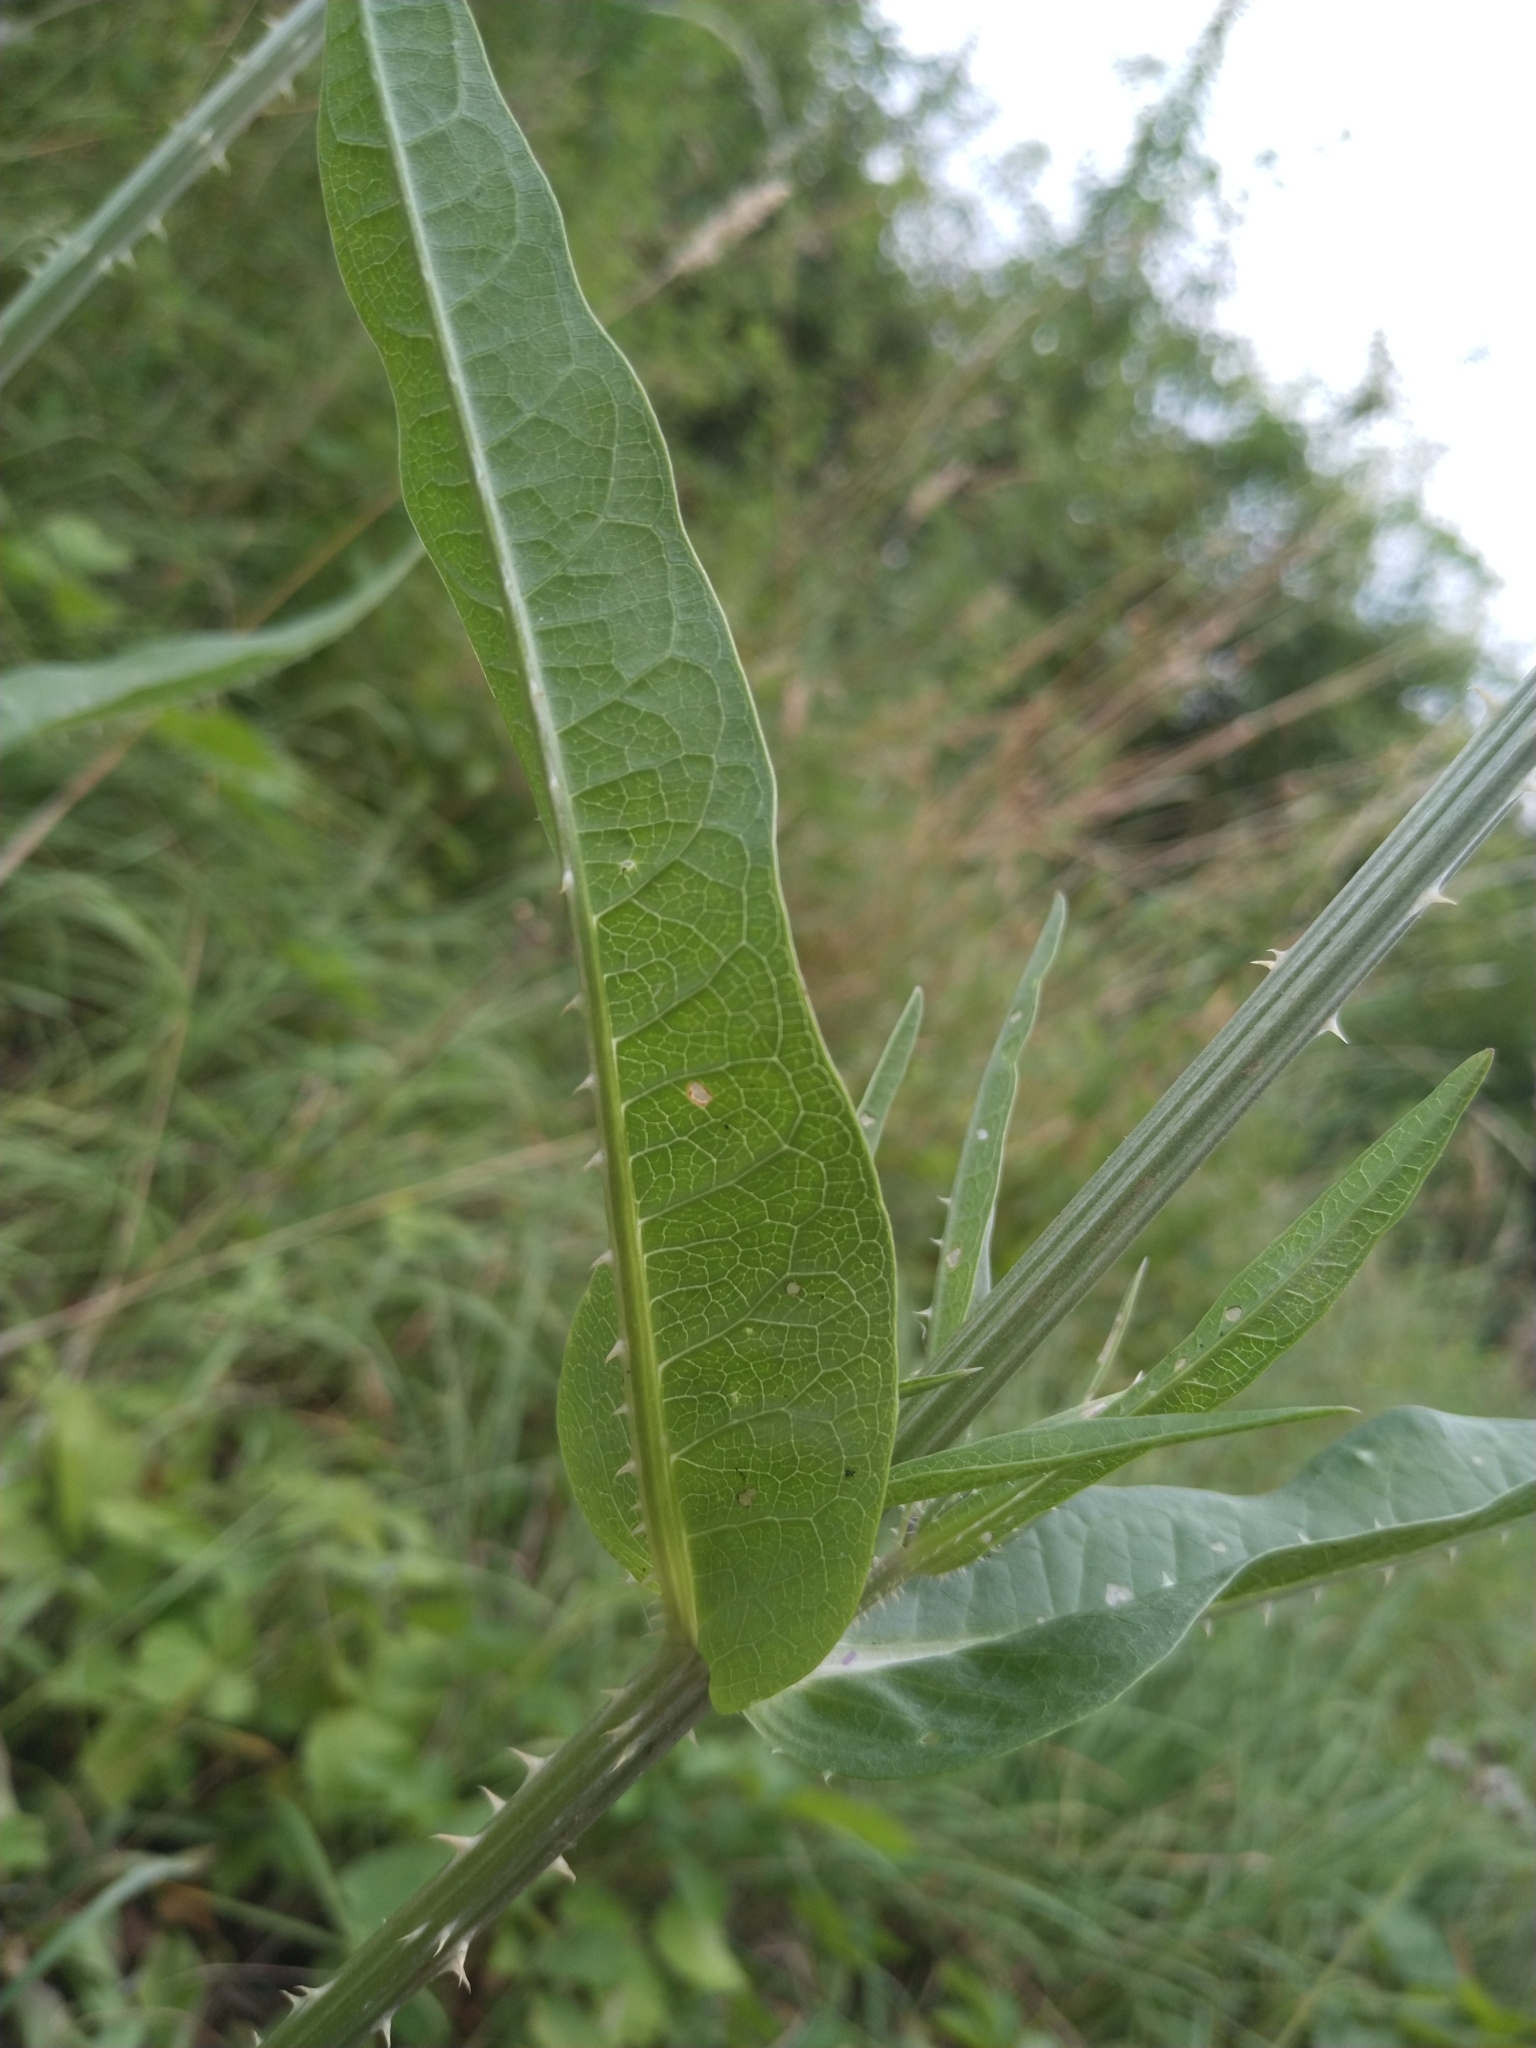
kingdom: Plantae
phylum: Tracheophyta
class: Magnoliopsida
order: Dipsacales
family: Caprifoliaceae
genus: Dipsacus
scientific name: Dipsacus fullonum
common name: Teasel
